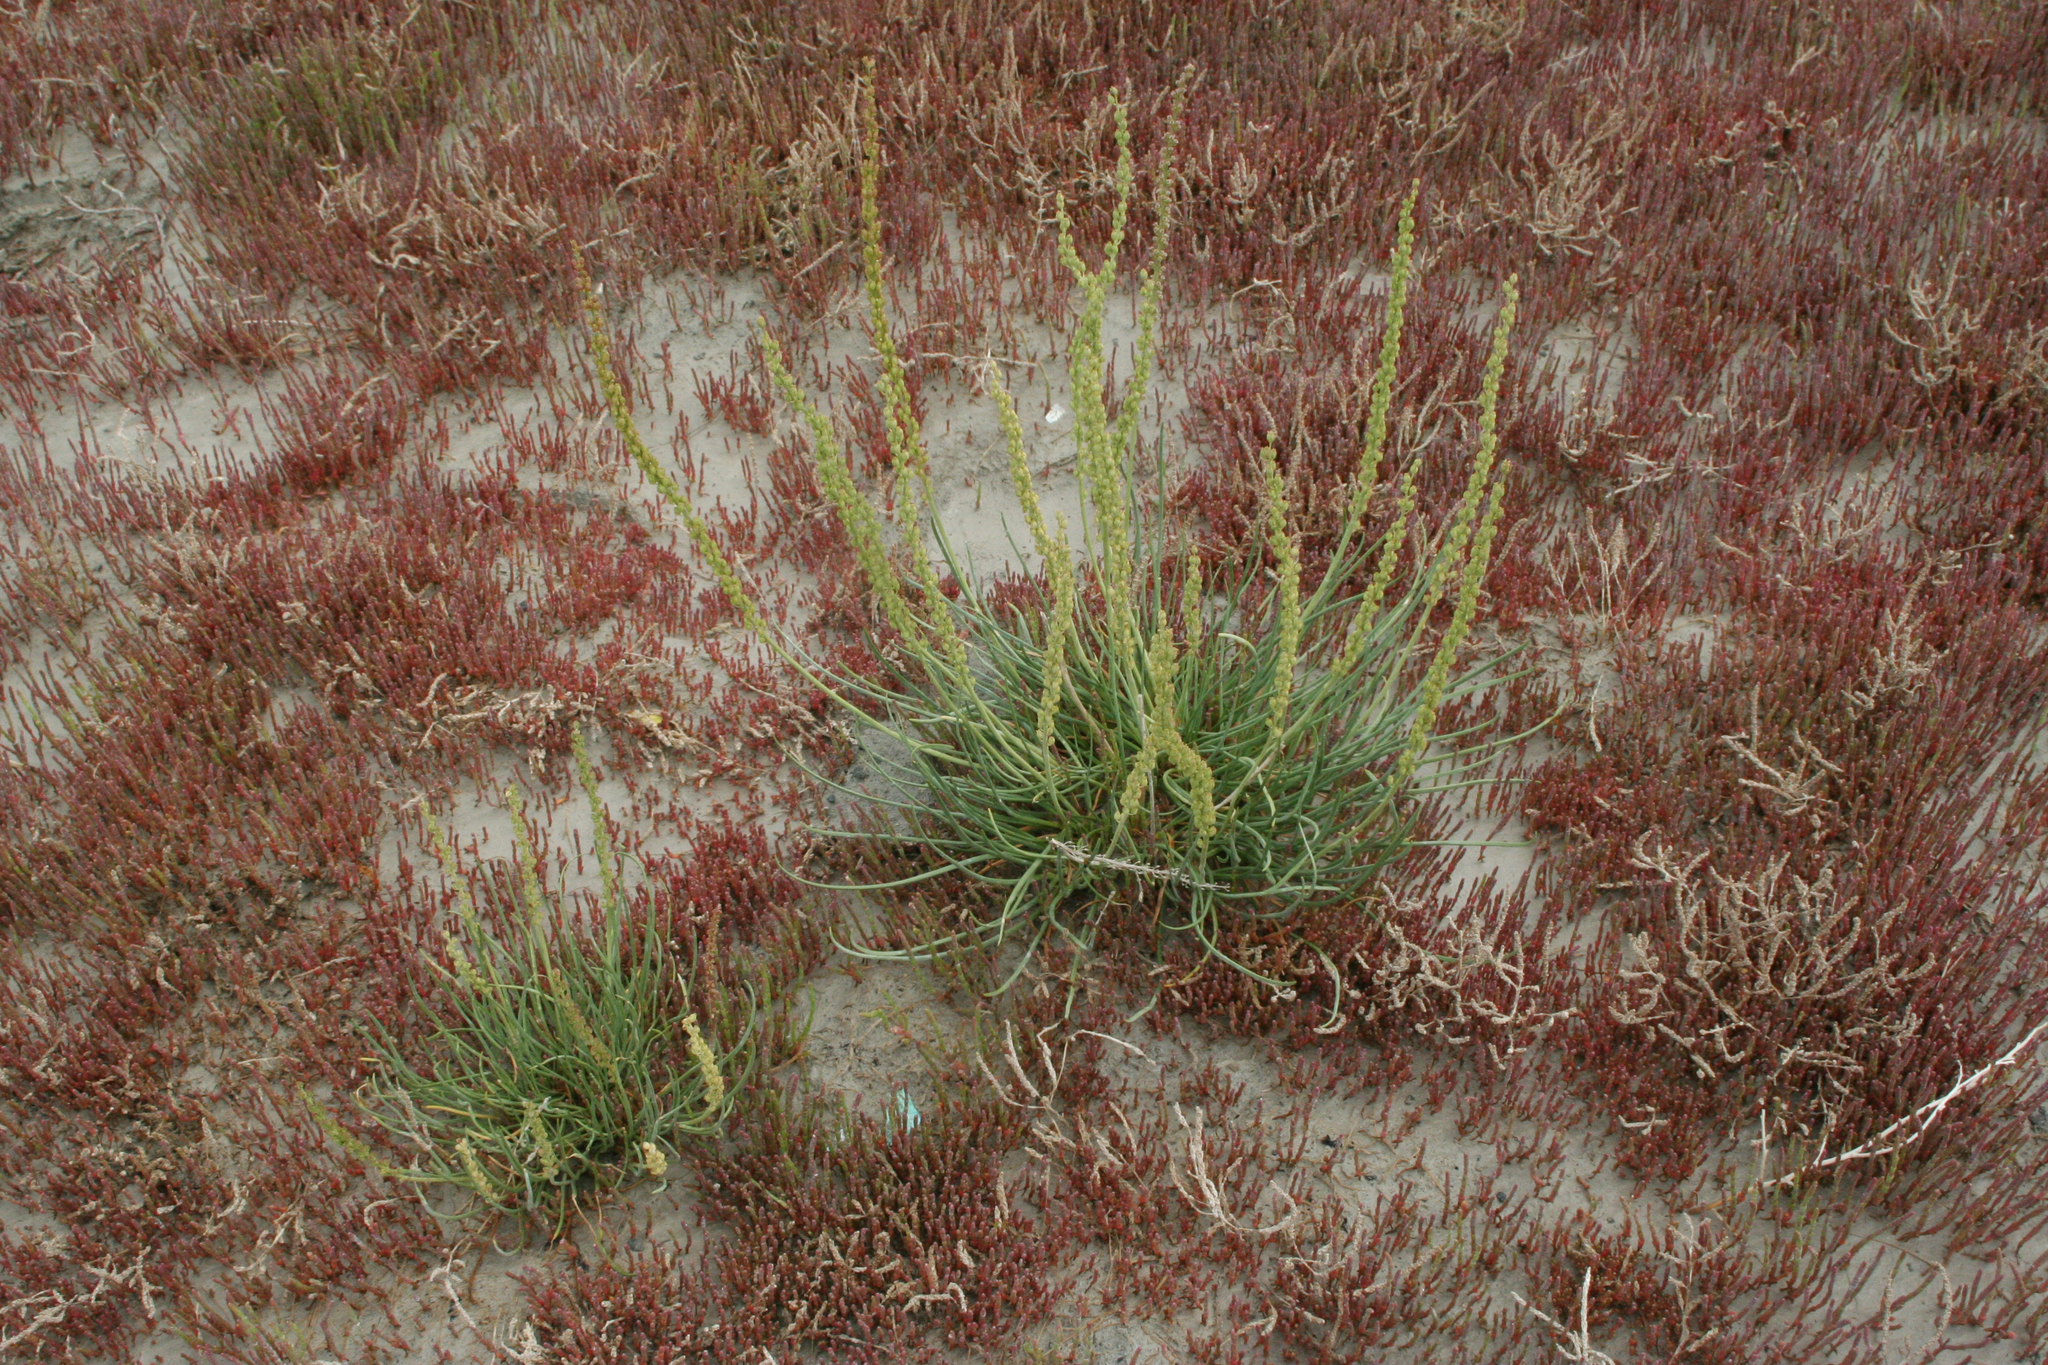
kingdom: Plantae
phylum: Tracheophyta
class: Liliopsida
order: Alismatales
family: Juncaginaceae
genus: Triglochin
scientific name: Triglochin maritima
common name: Sea arrowgrass
